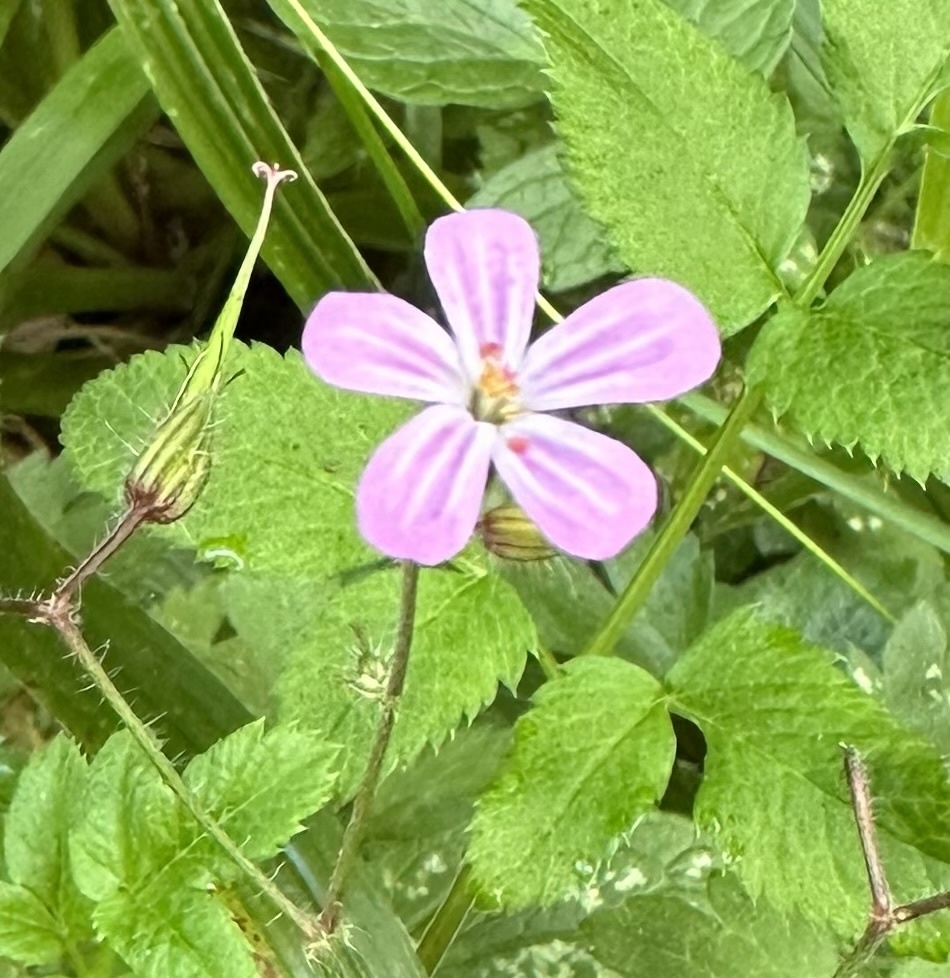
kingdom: Plantae
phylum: Tracheophyta
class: Magnoliopsida
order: Geraniales
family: Geraniaceae
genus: Geranium
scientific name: Geranium robertianum
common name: Herb-robert
